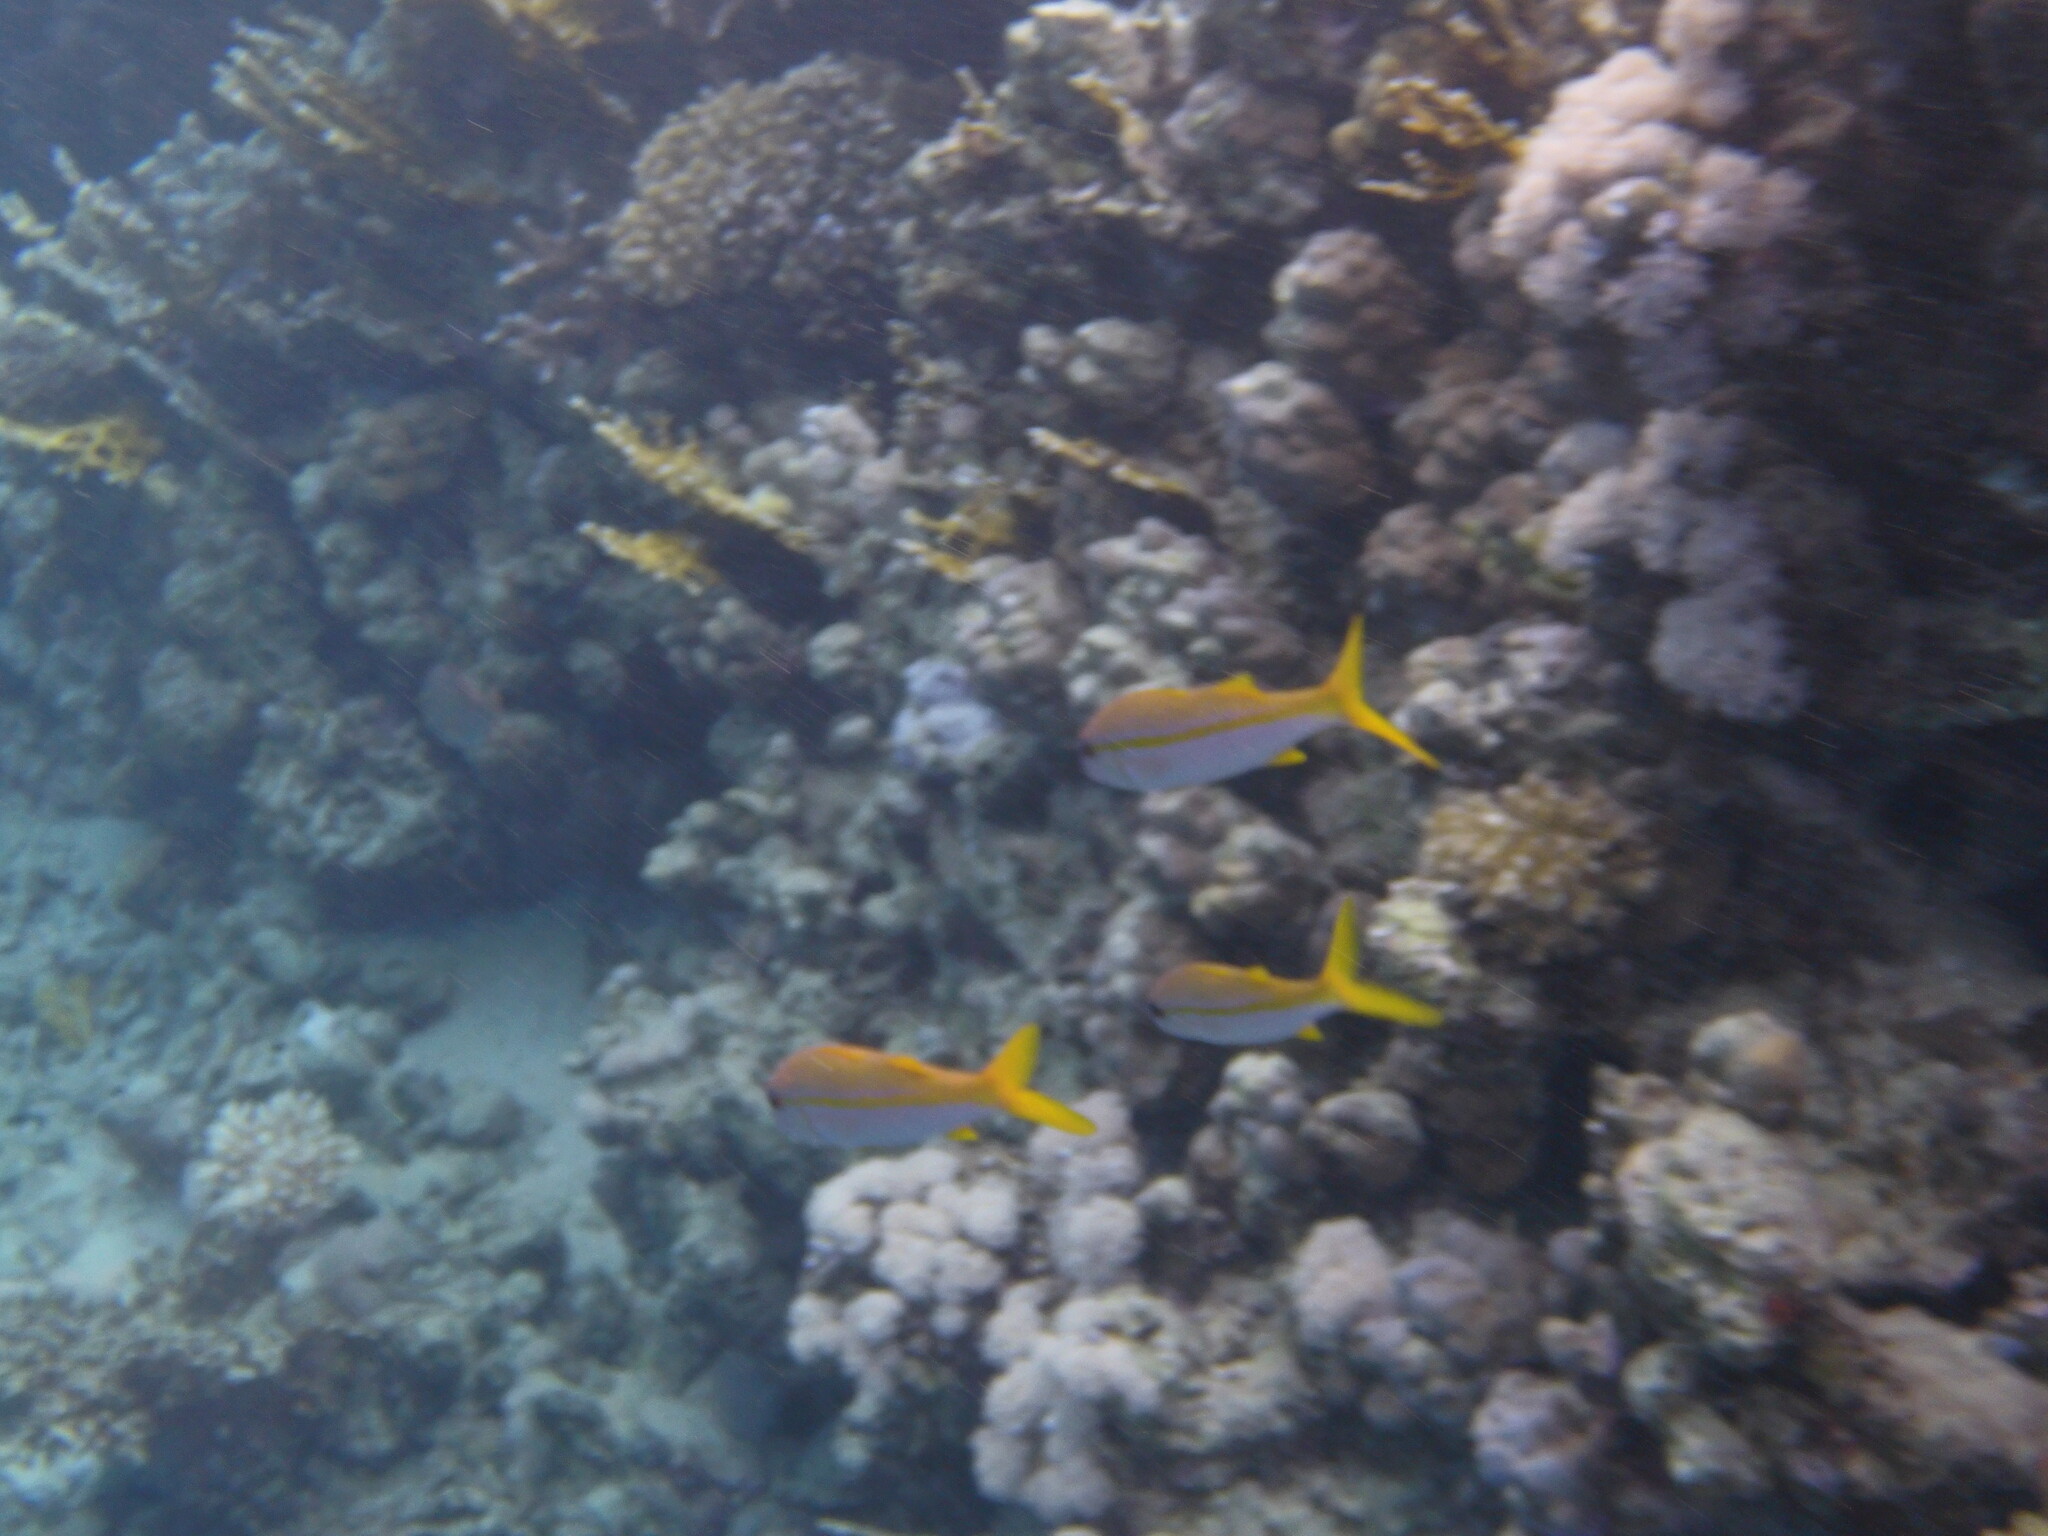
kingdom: Animalia
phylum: Chordata
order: Perciformes
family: Mullidae
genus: Mulloidichthys
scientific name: Mulloidichthys vanicolensis
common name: Yellowfin goatfish
